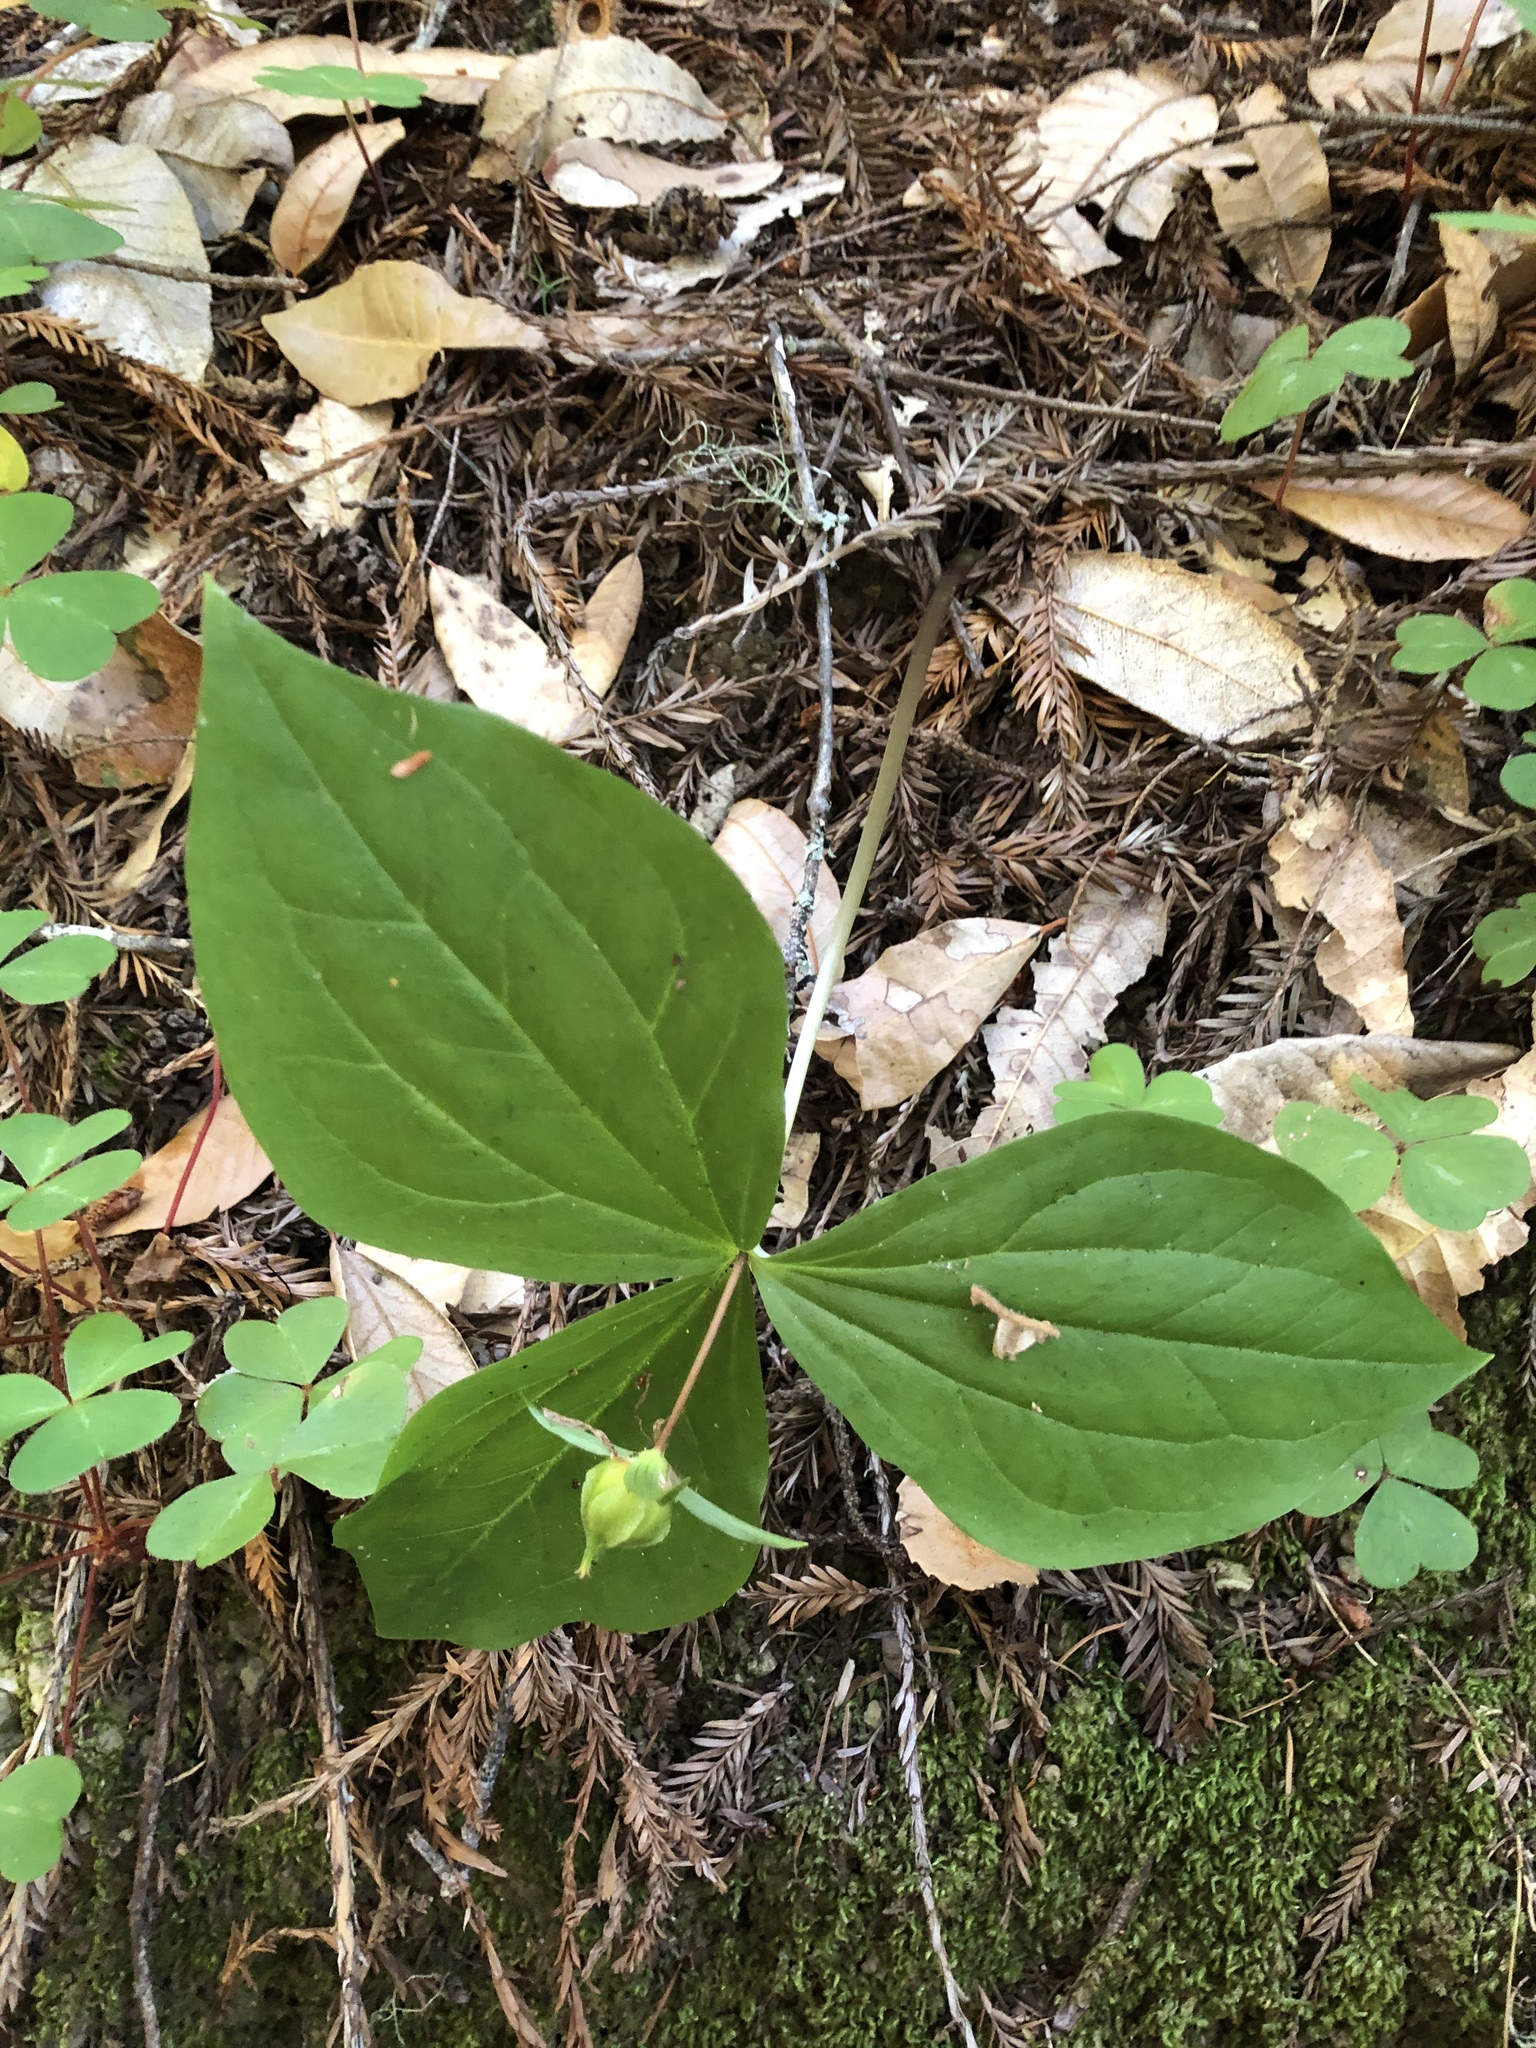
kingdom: Plantae
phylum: Tracheophyta
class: Liliopsida
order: Liliales
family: Melanthiaceae
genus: Trillium
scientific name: Trillium ovatum
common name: Pacific trillium
